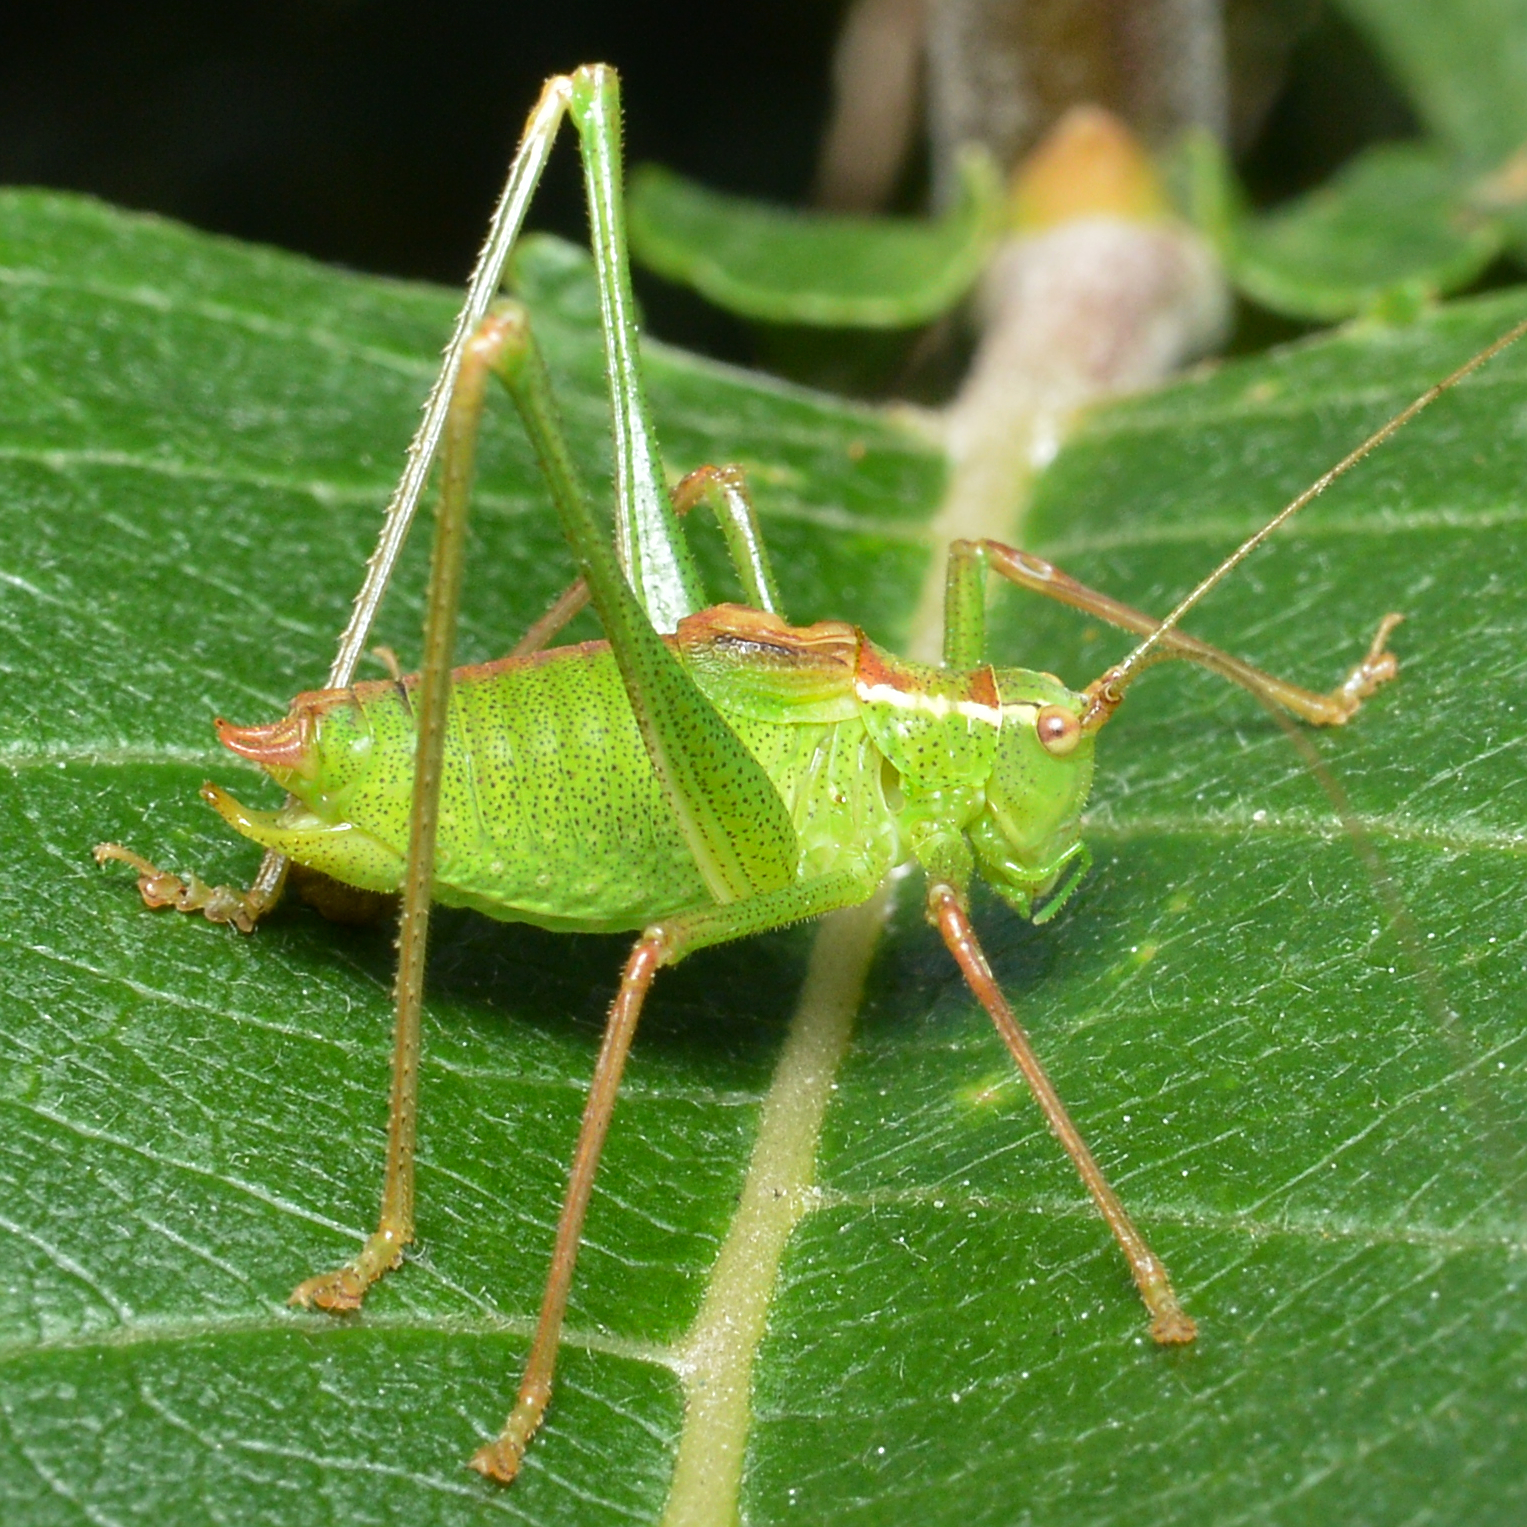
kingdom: Animalia
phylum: Arthropoda
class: Insecta
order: Orthoptera
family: Tettigoniidae
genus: Leptophyes
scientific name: Leptophyes punctatissima
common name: Speckled bush-cricket
